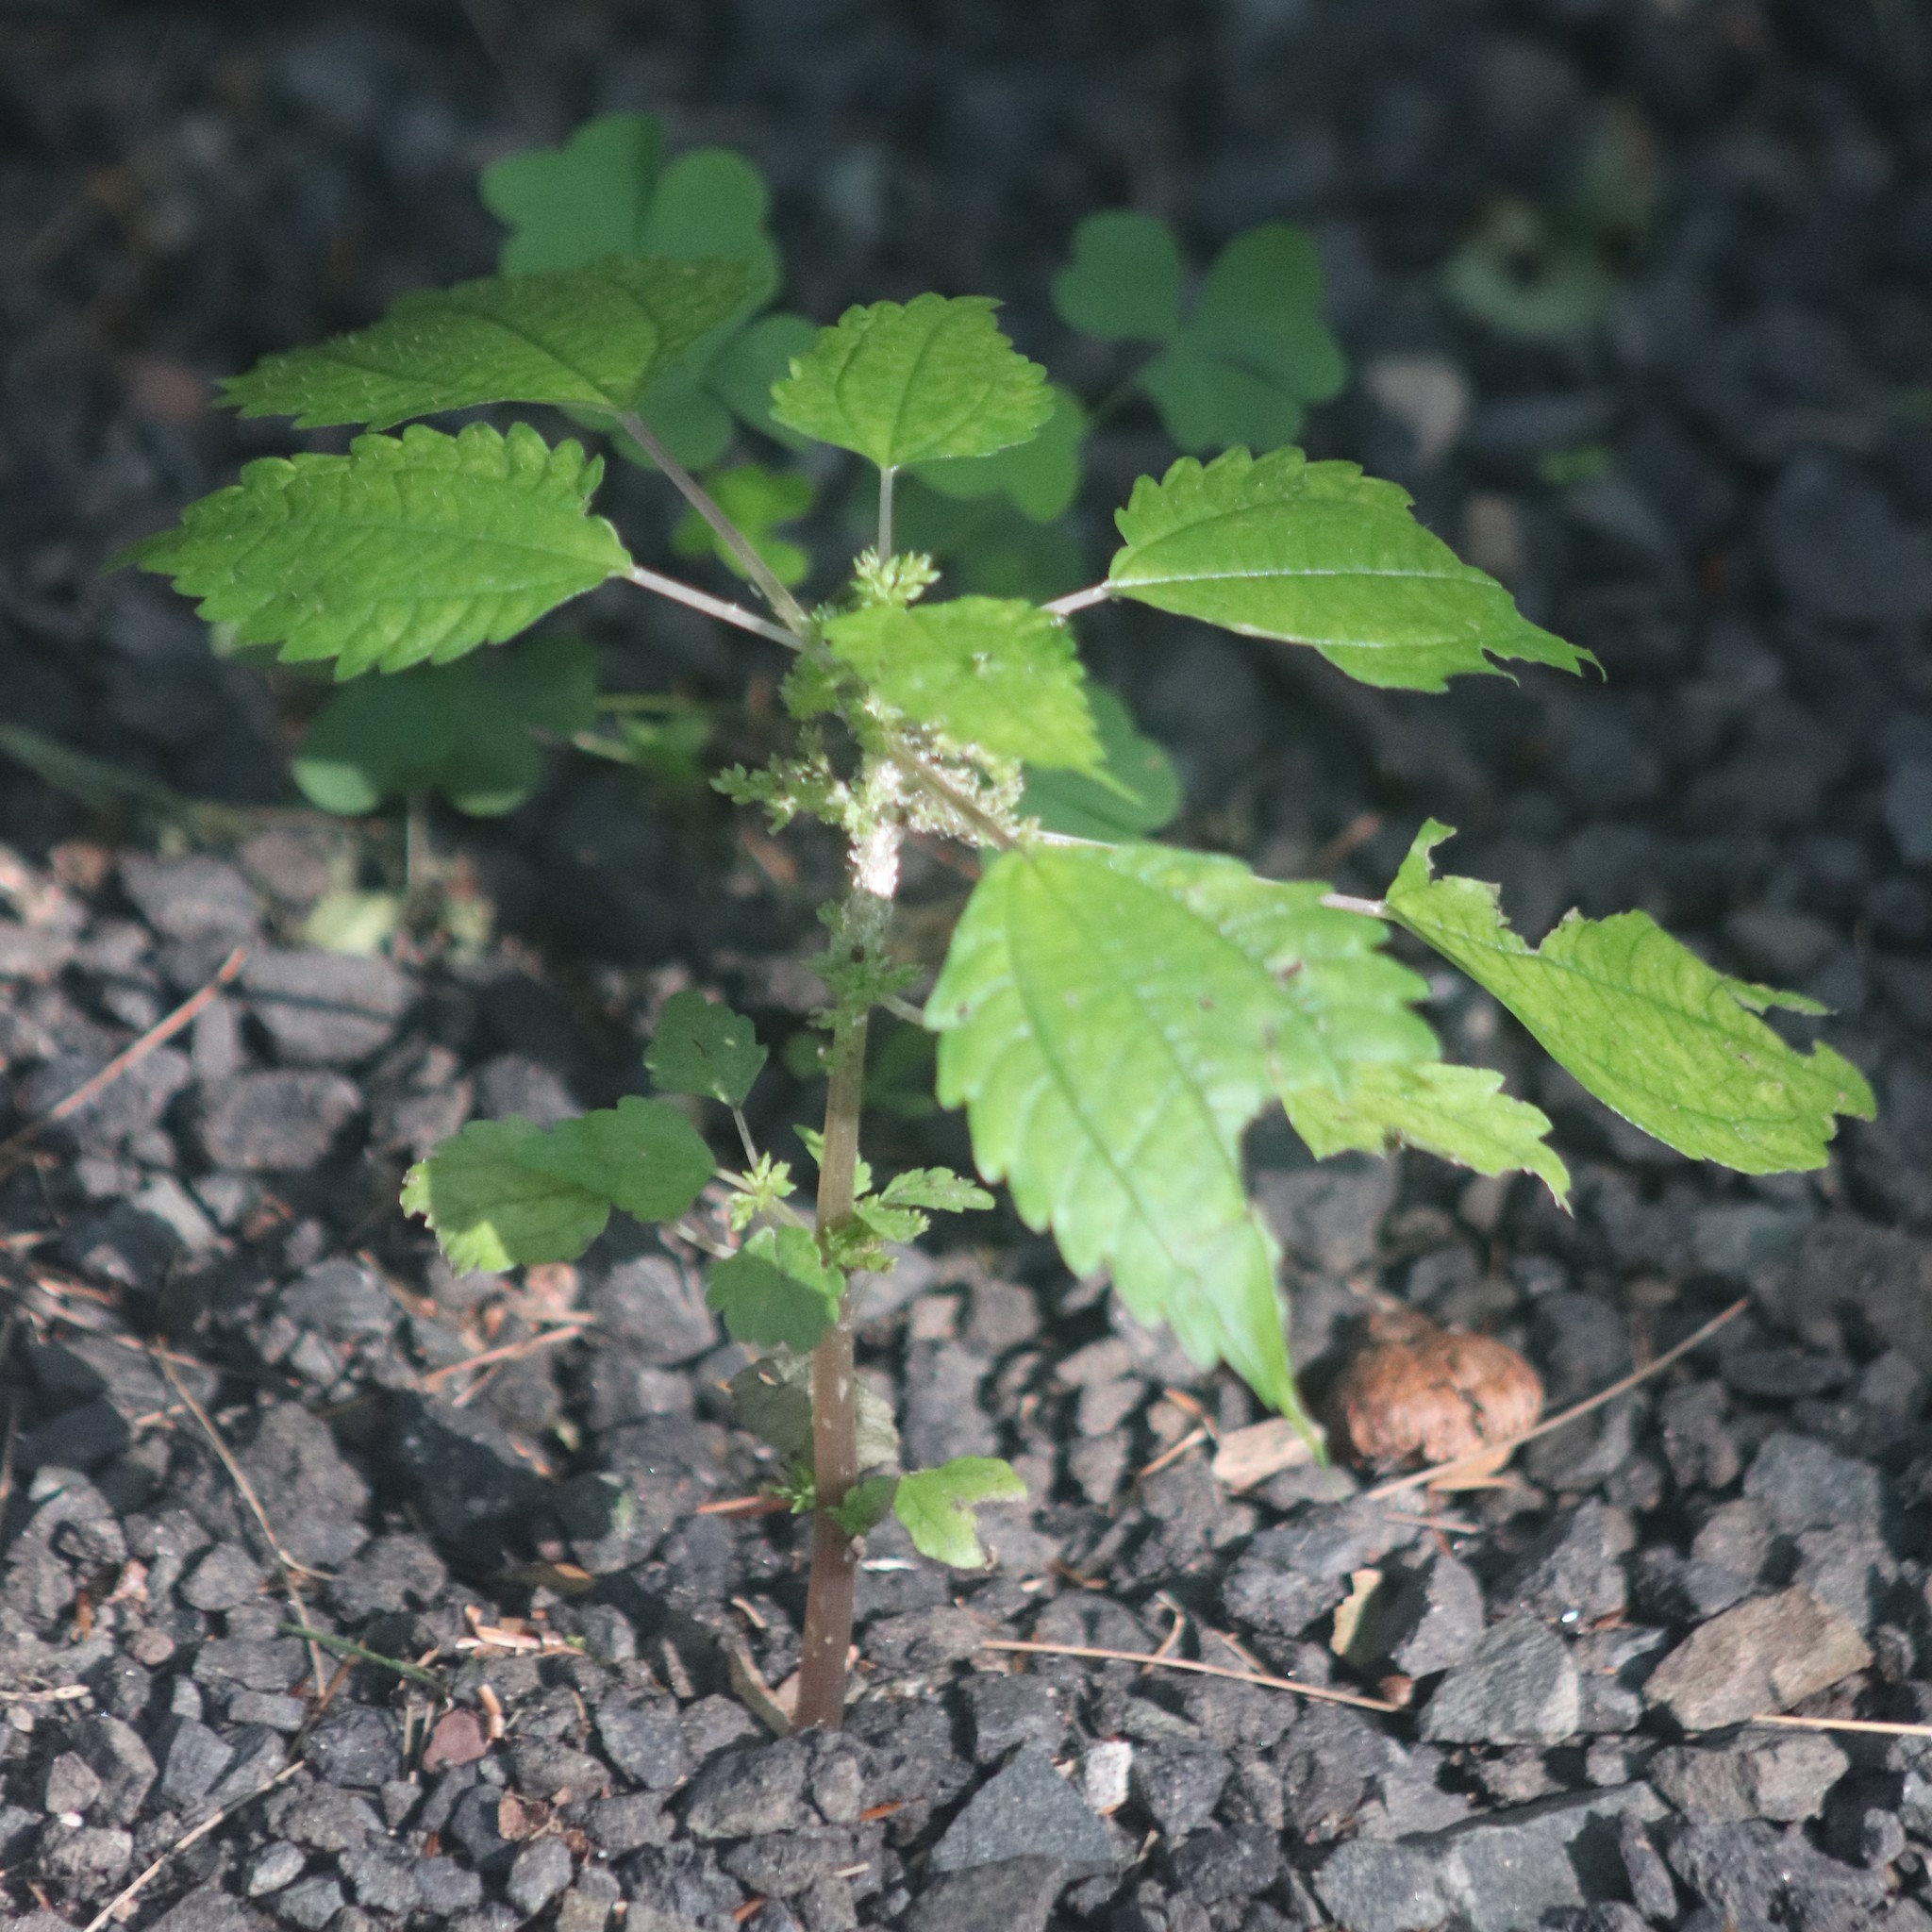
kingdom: Plantae
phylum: Tracheophyta
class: Magnoliopsida
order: Rosales
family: Urticaceae
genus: Pilea
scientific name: Pilea pumila
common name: Clearweed
